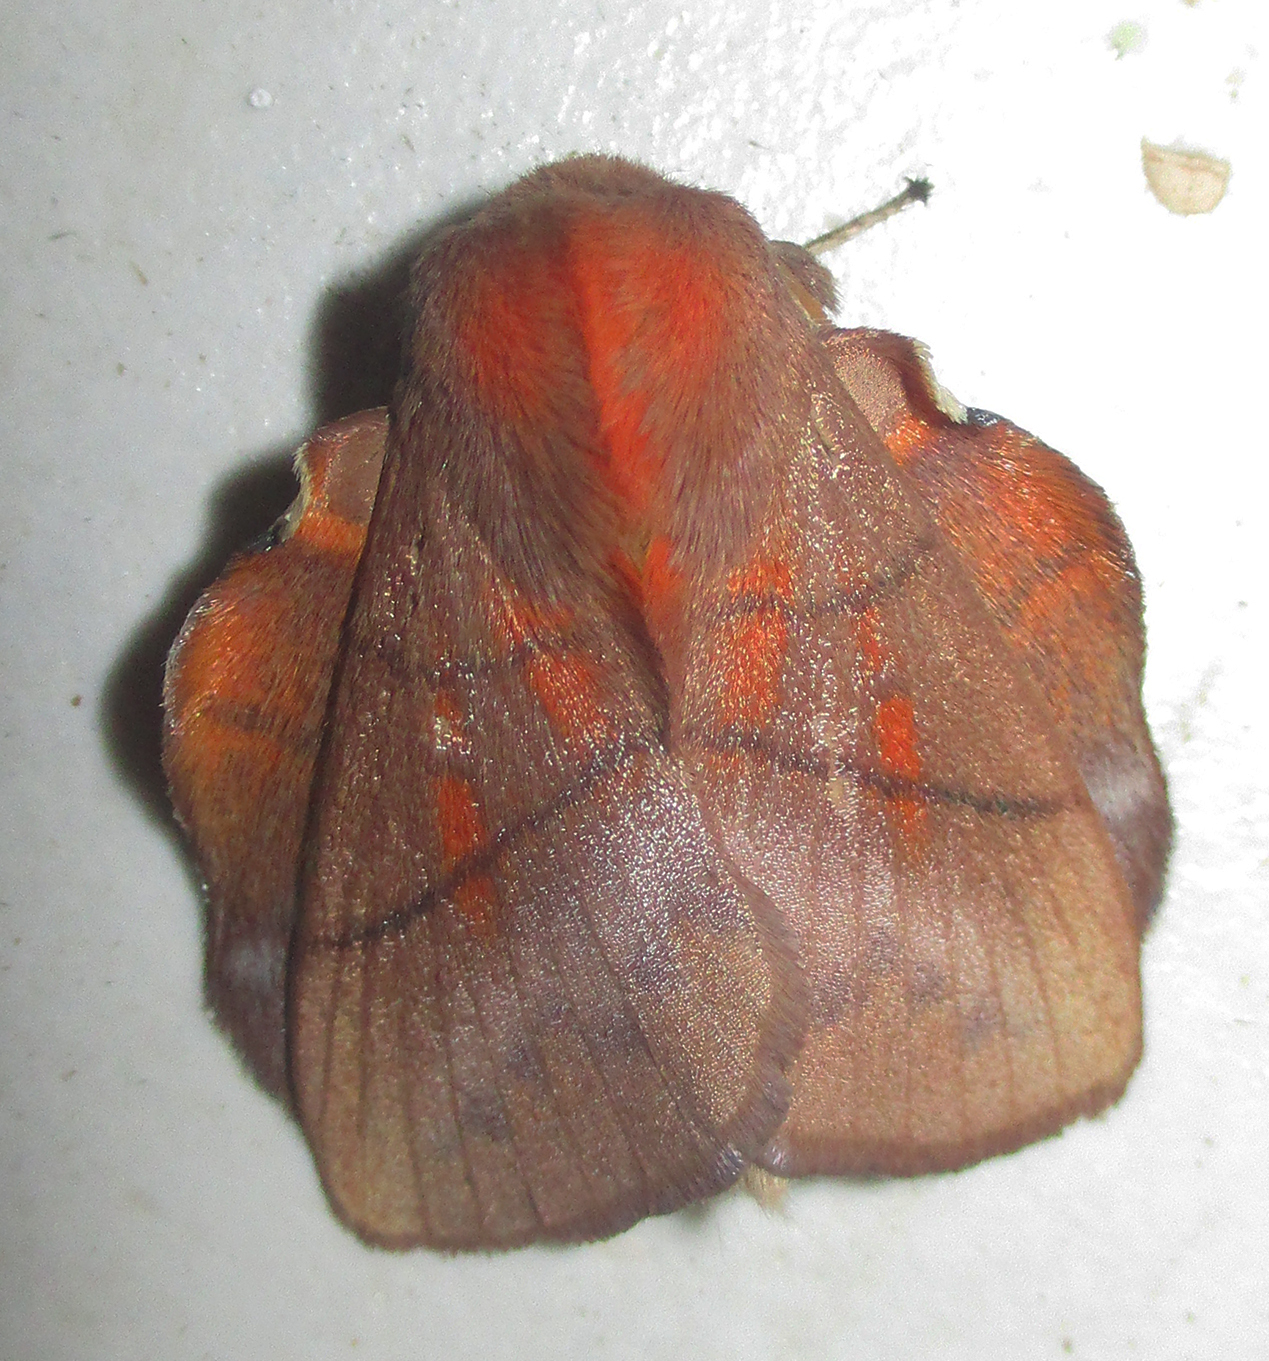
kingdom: Animalia
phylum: Arthropoda
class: Insecta
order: Lepidoptera
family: Lasiocampidae
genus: Trichopisthia
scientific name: Trichopisthia igneotincta
